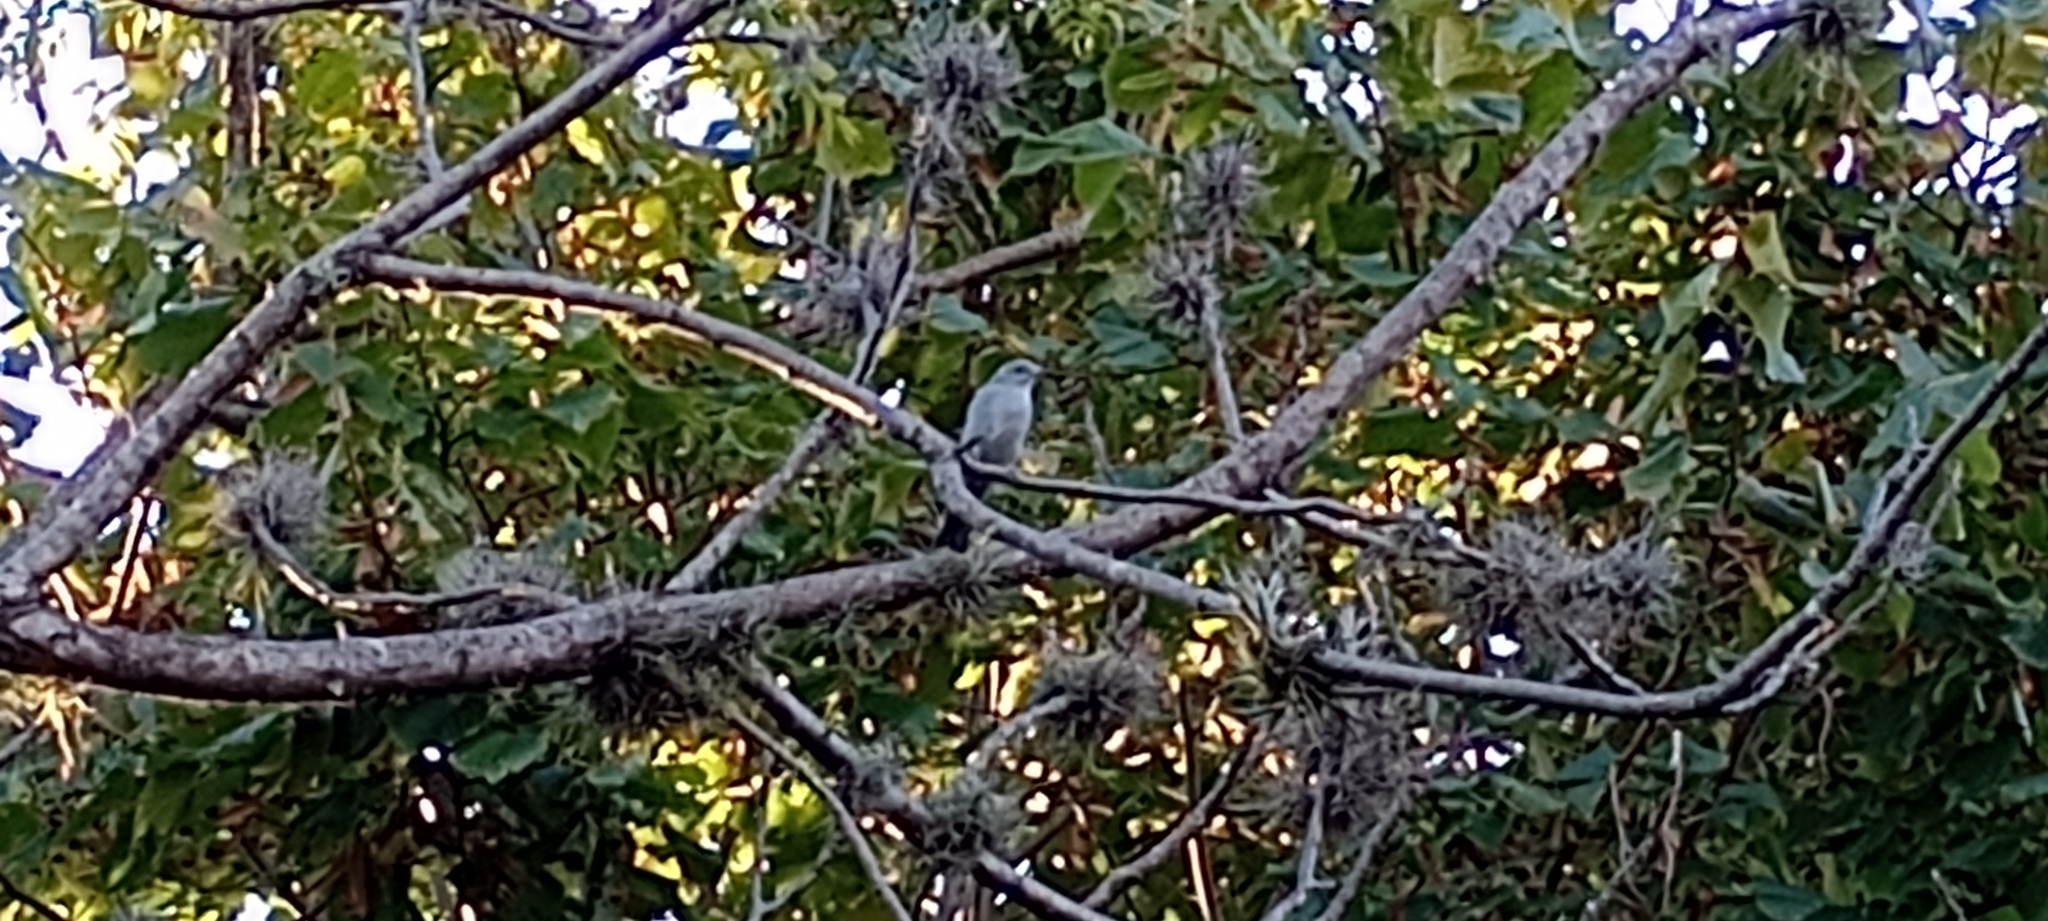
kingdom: Animalia
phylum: Chordata
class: Aves
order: Passeriformes
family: Thraupidae
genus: Thraupis
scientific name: Thraupis sayaca
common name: Sayaca tanager
